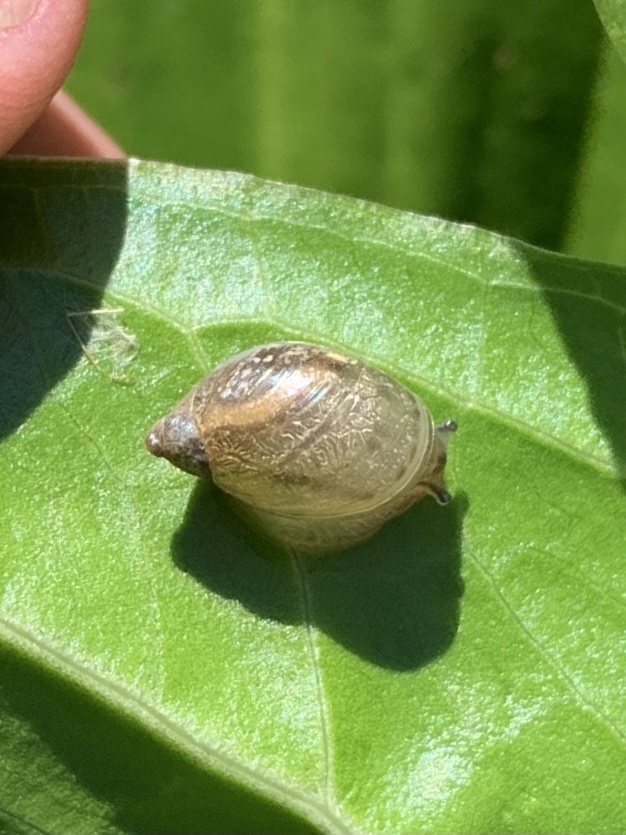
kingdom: Animalia
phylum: Mollusca
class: Gastropoda
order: Stylommatophora
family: Succineidae
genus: Oxyloma
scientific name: Oxyloma retusum
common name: Blunt ambersnail
